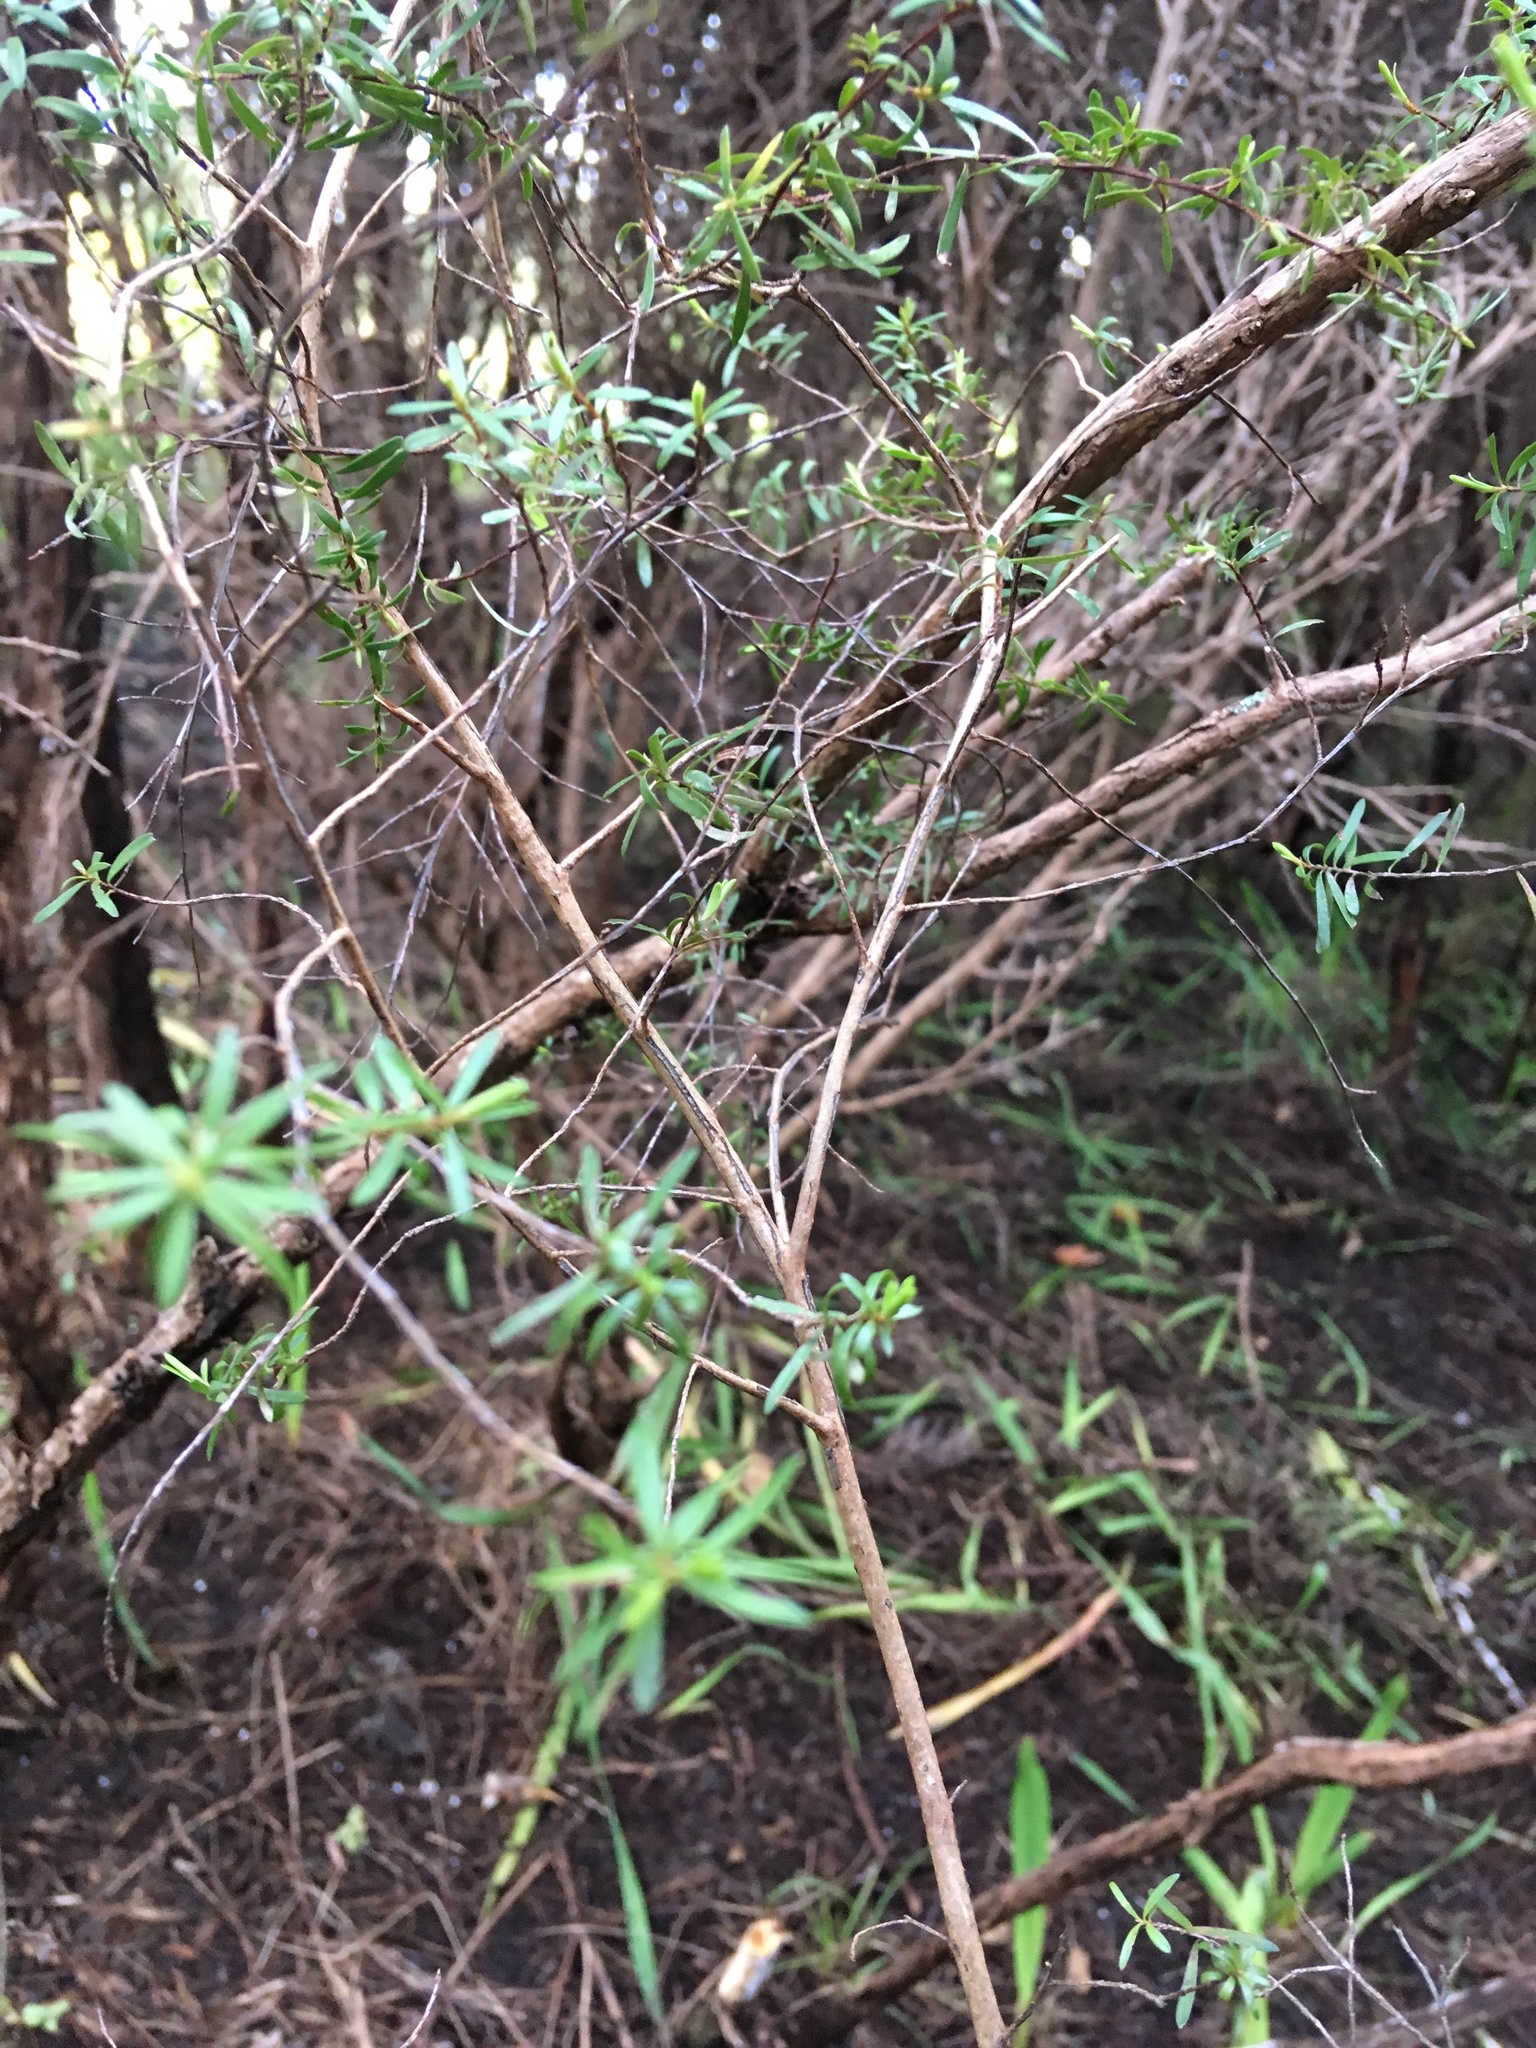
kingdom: Plantae
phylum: Tracheophyta
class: Magnoliopsida
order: Myrtales
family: Myrtaceae
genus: Kunzea
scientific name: Kunzea robusta
